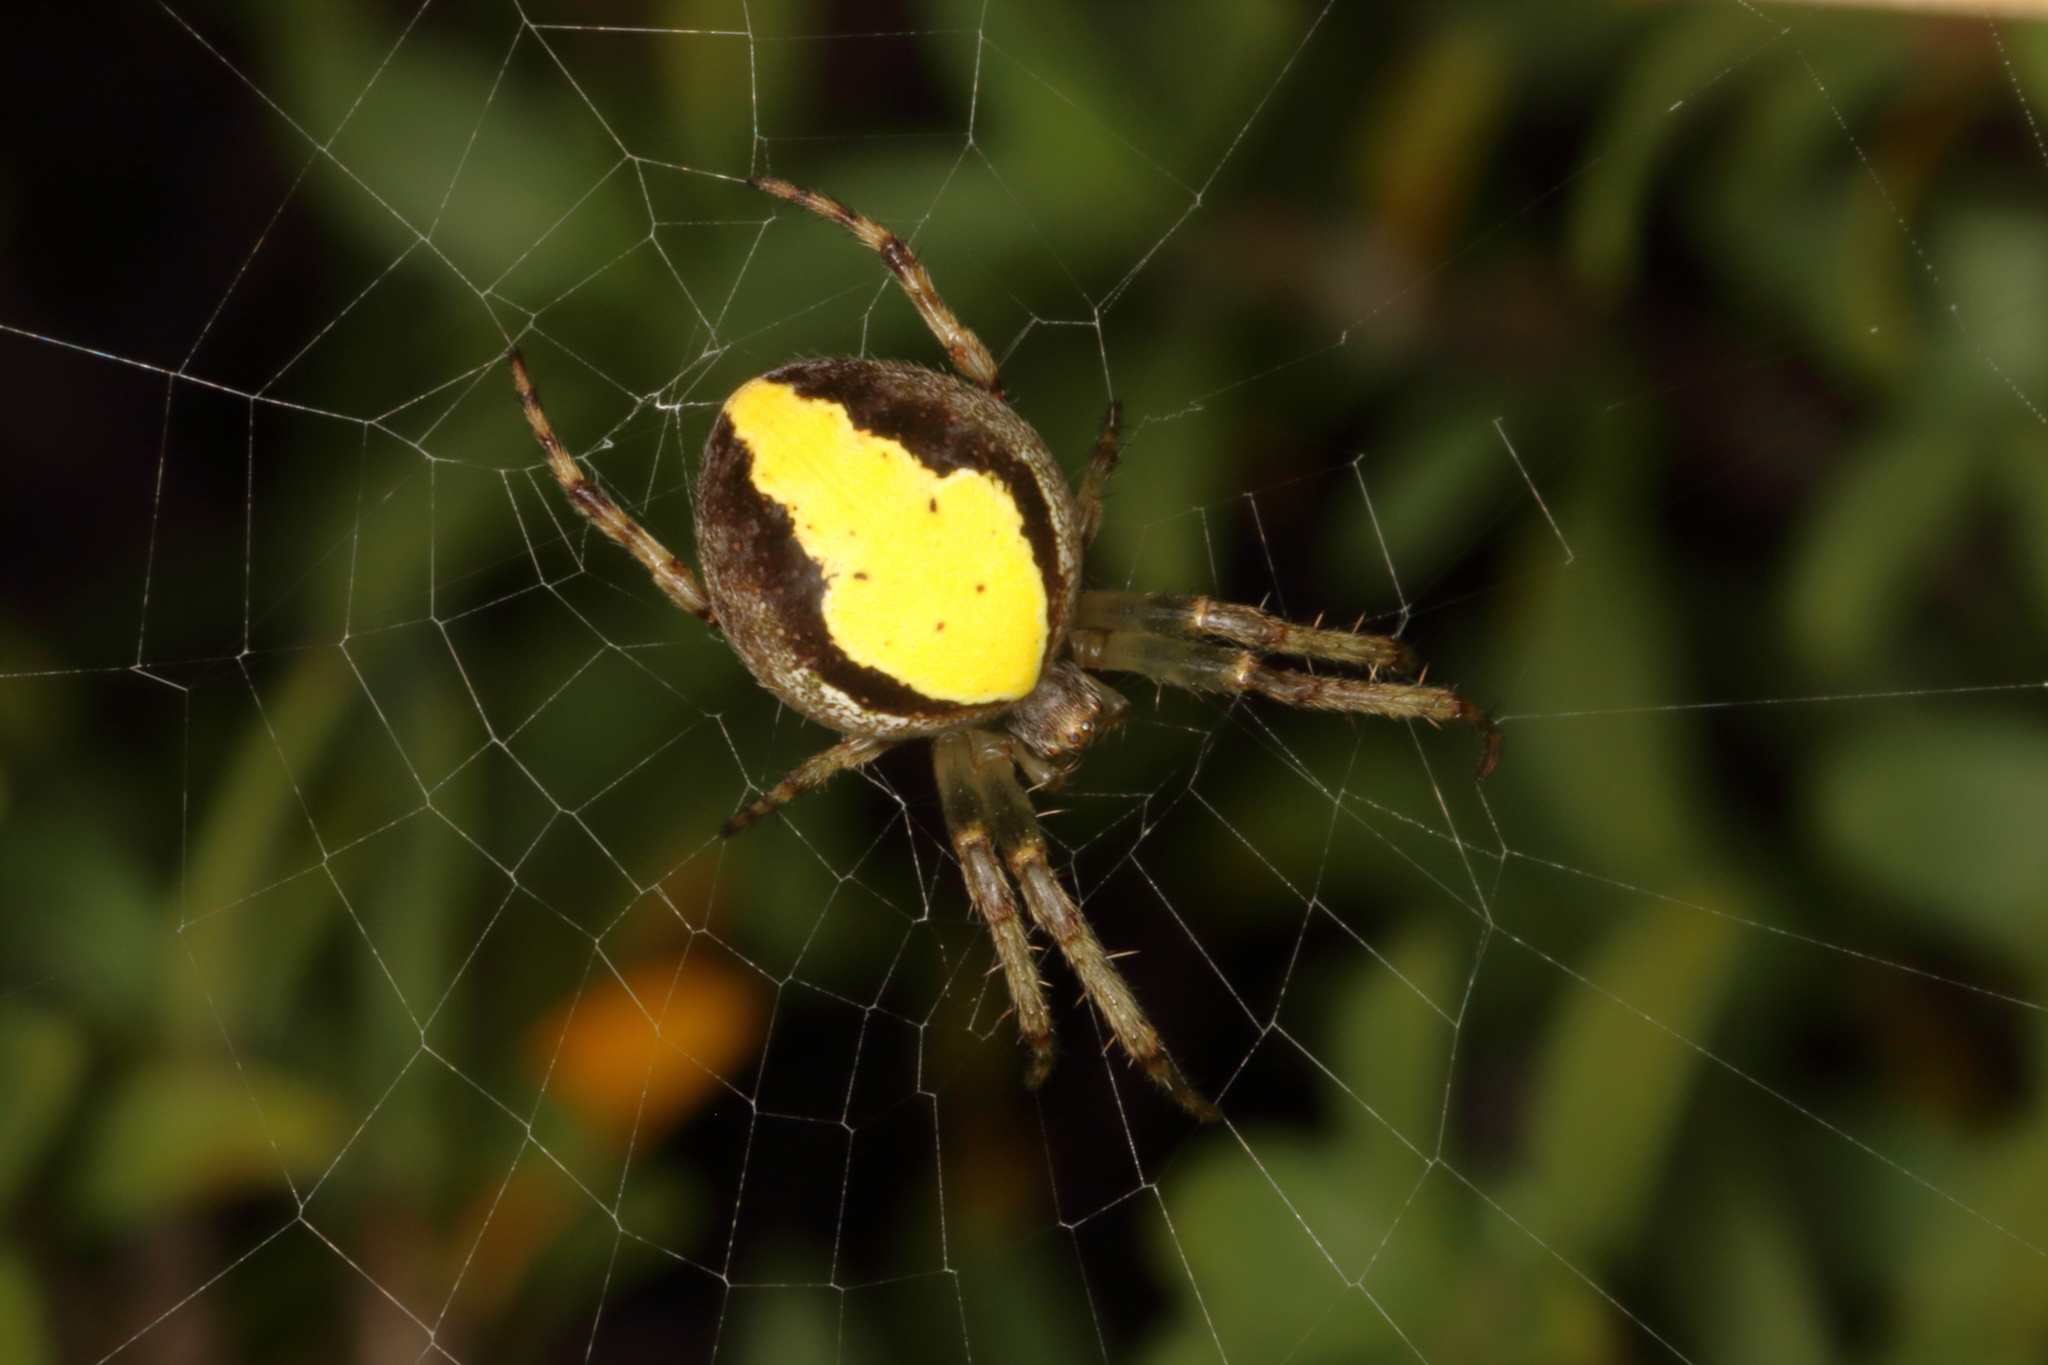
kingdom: Animalia
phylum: Arthropoda
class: Arachnida
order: Araneae
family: Araneidae
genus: Colaranea
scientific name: Colaranea viriditas
